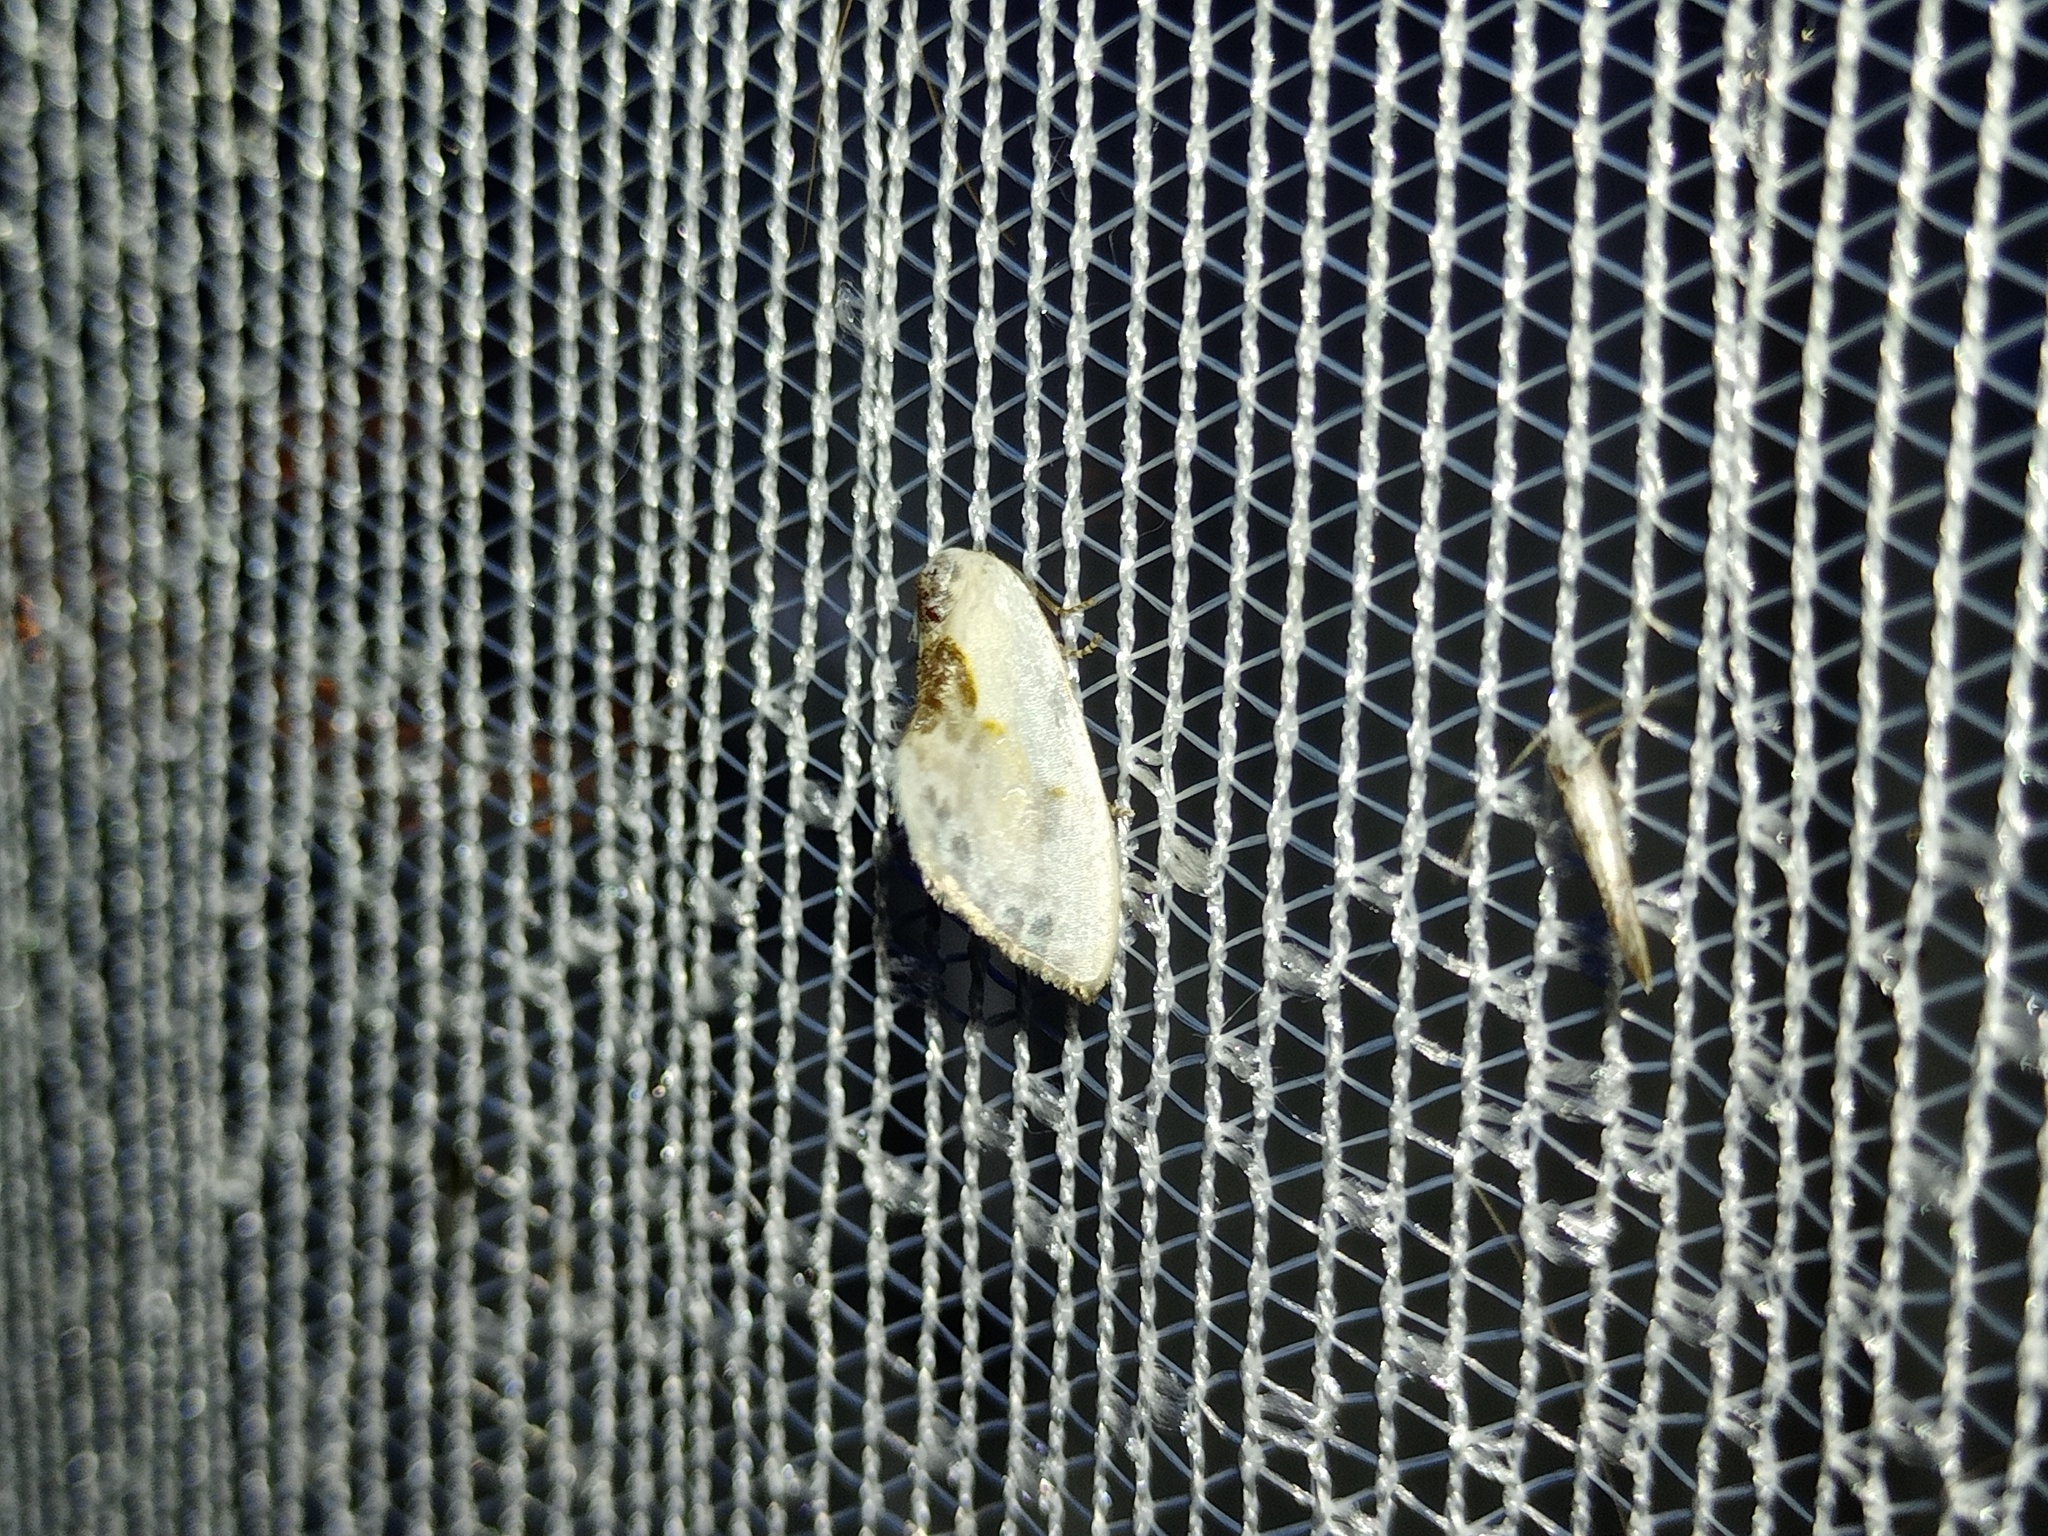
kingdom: Animalia
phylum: Arthropoda
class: Insecta
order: Lepidoptera
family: Drepanidae
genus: Cilix
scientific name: Cilix glaucata
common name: Chinese character
